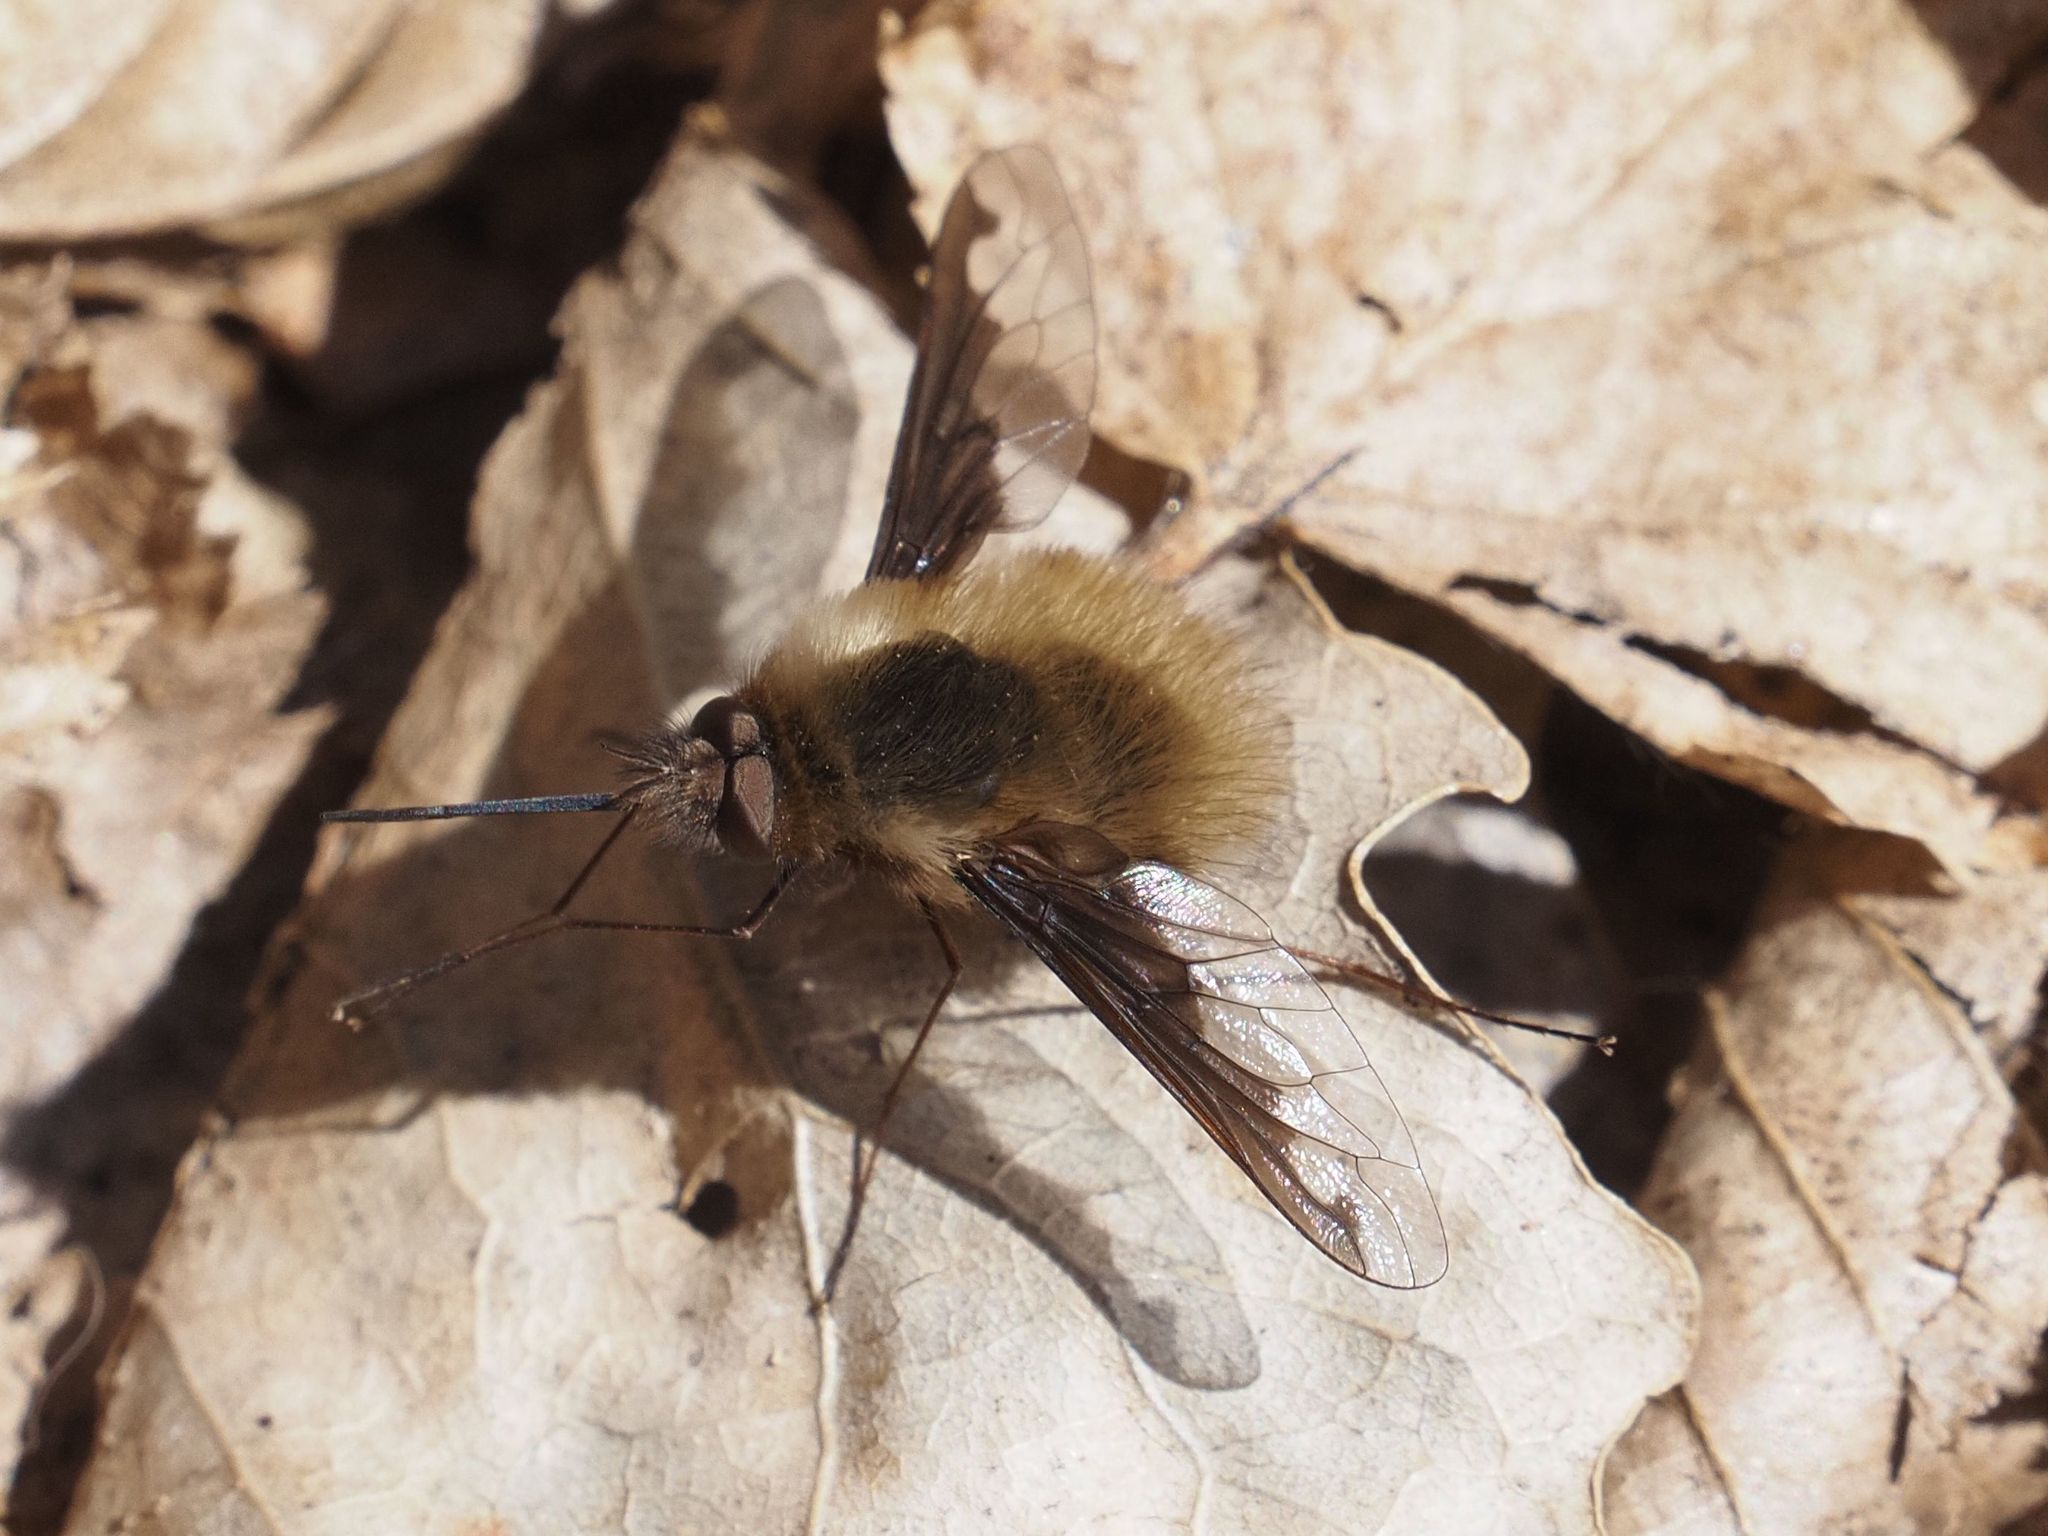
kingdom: Animalia
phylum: Arthropoda
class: Insecta
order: Diptera
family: Bombyliidae
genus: Bombylius
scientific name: Bombylius major
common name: Bee fly
